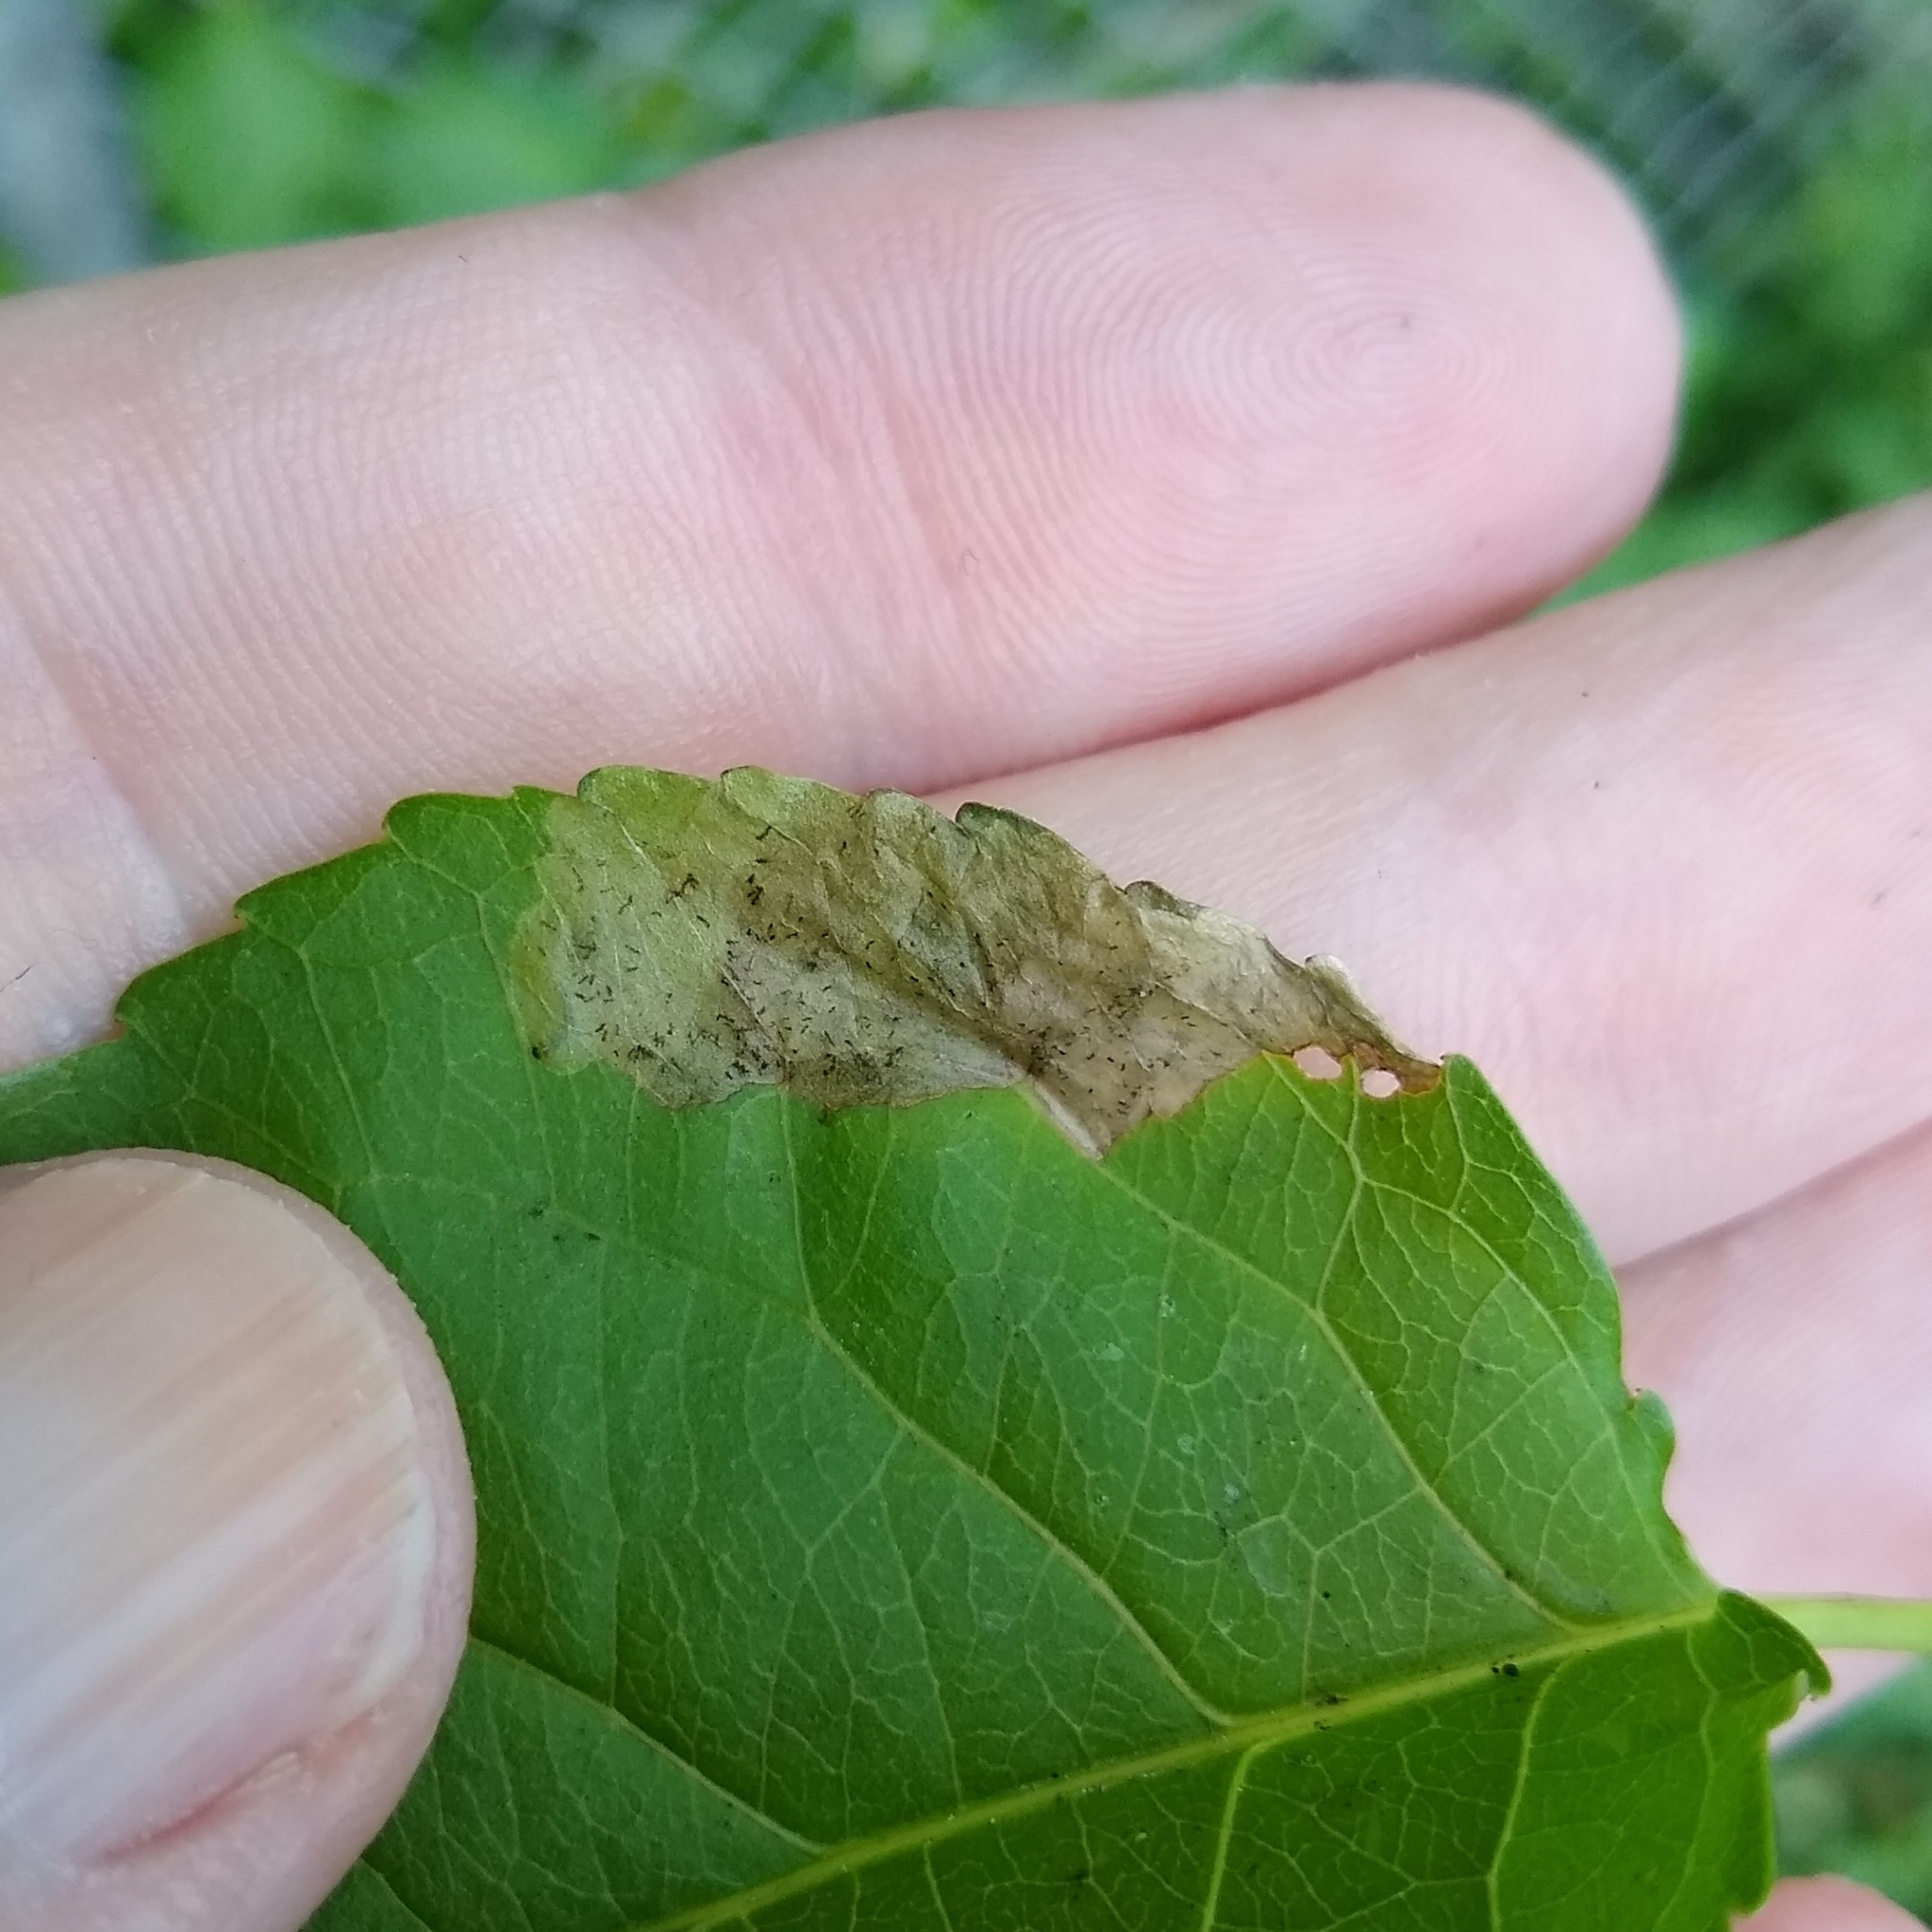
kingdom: Animalia
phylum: Arthropoda
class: Insecta
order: Coleoptera
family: Chrysomelidae
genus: Sumitrosis
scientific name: Sumitrosis rosea
